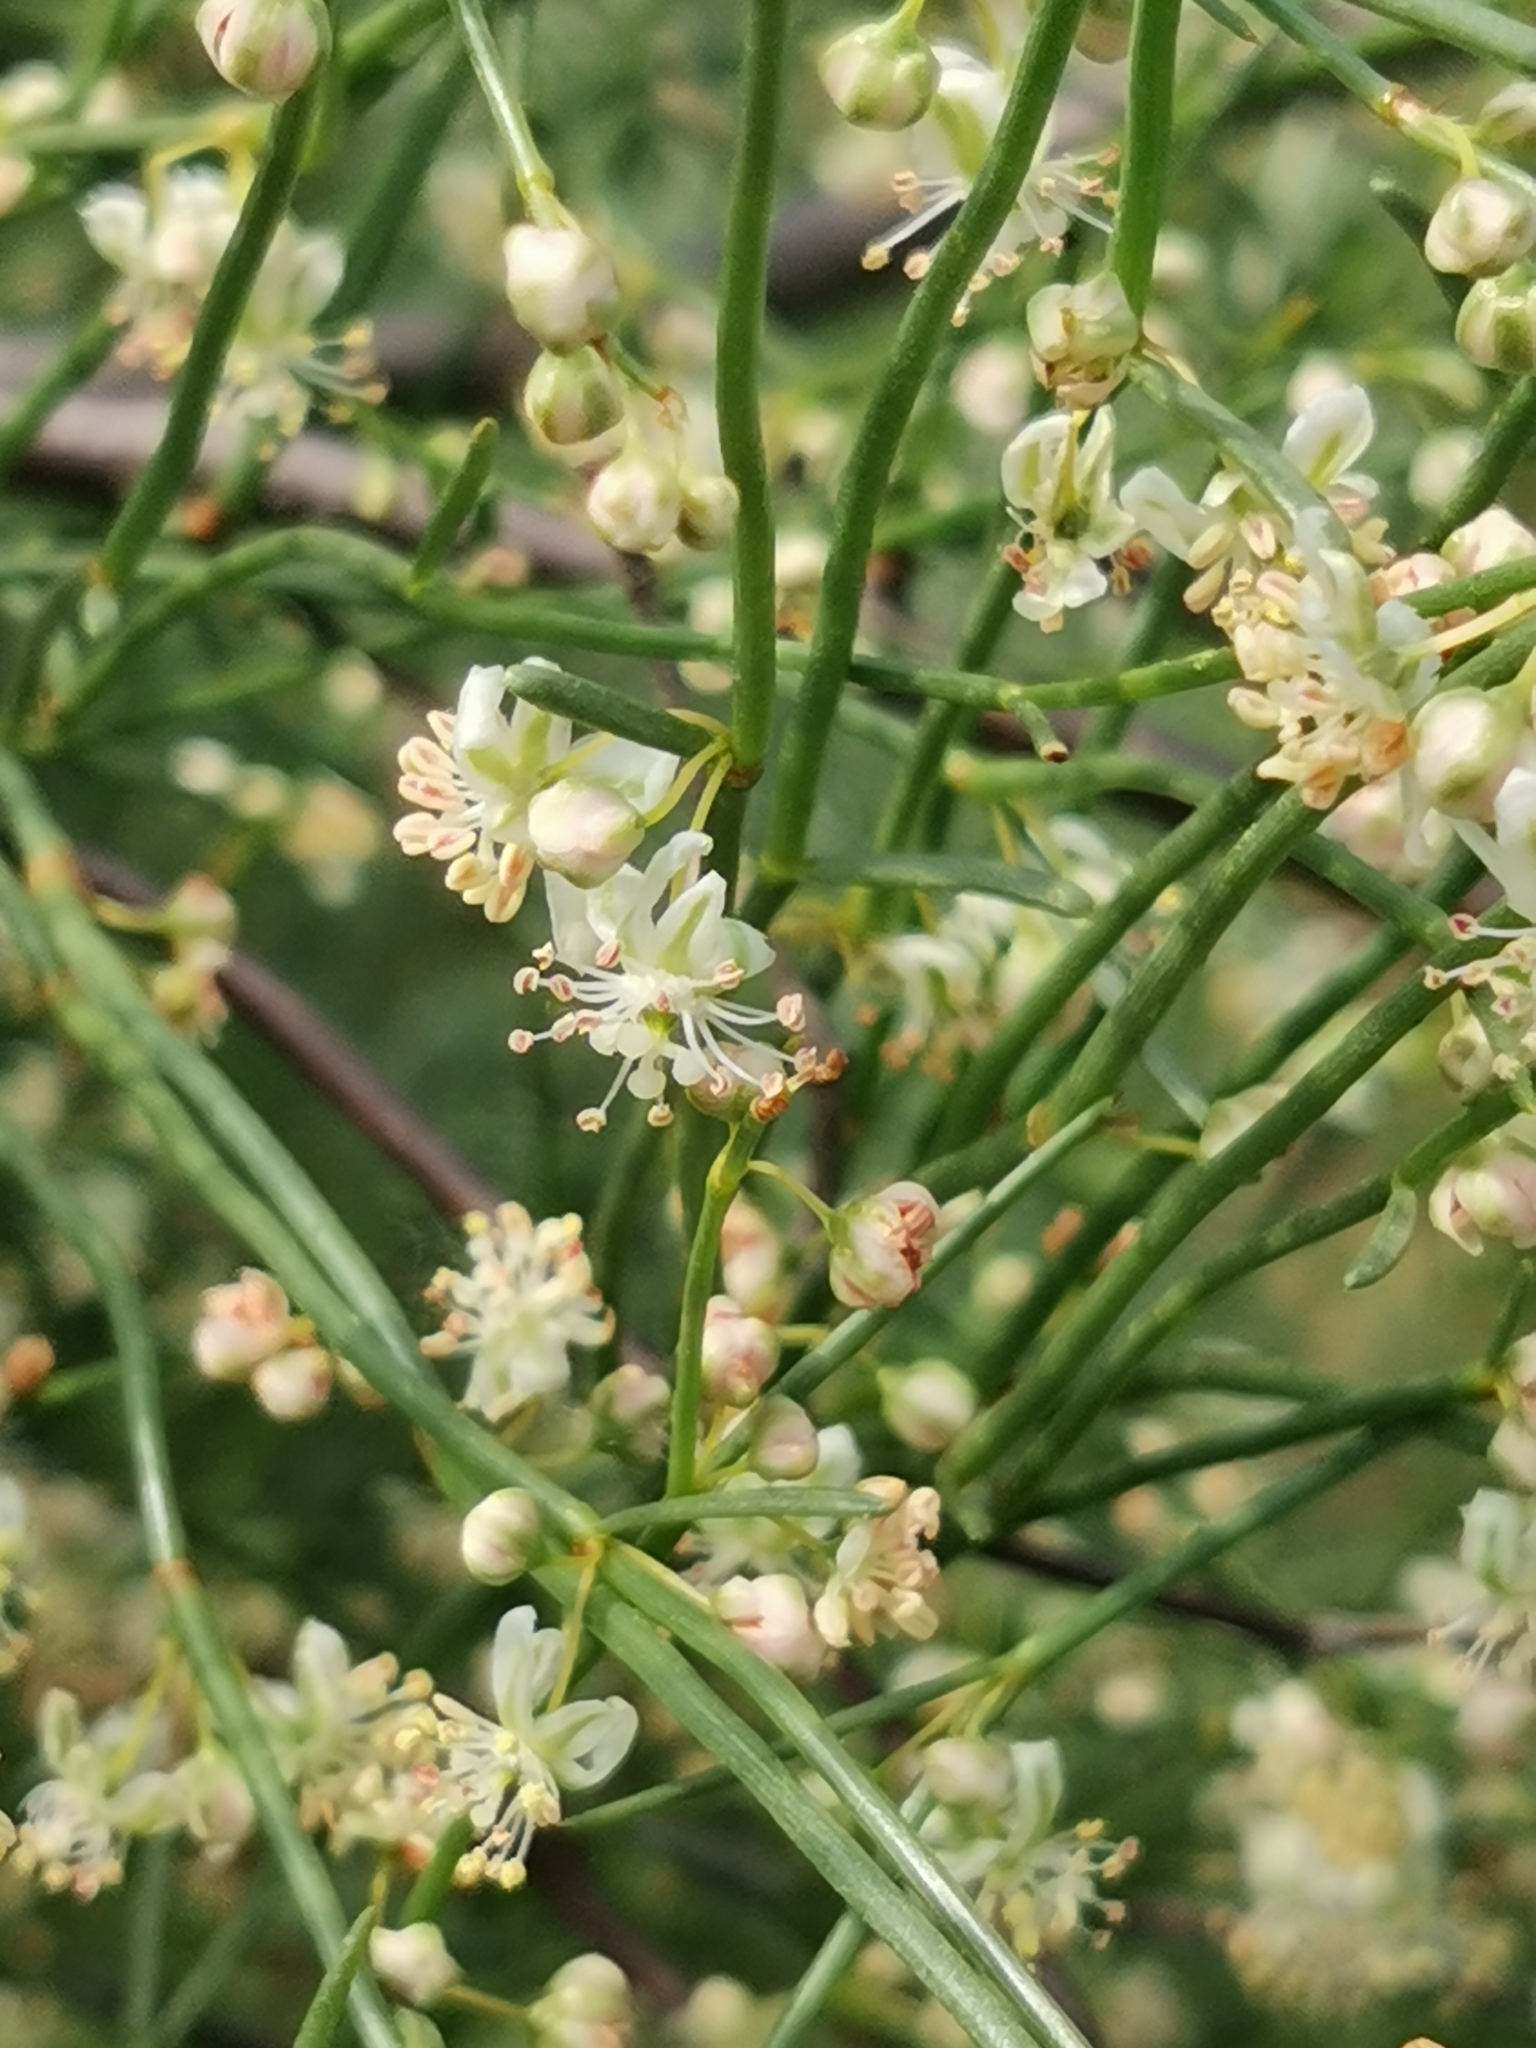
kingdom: Plantae
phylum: Tracheophyta
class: Magnoliopsida
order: Caryophyllales
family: Polygonaceae
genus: Calligonum
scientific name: Calligonum aphyllum
